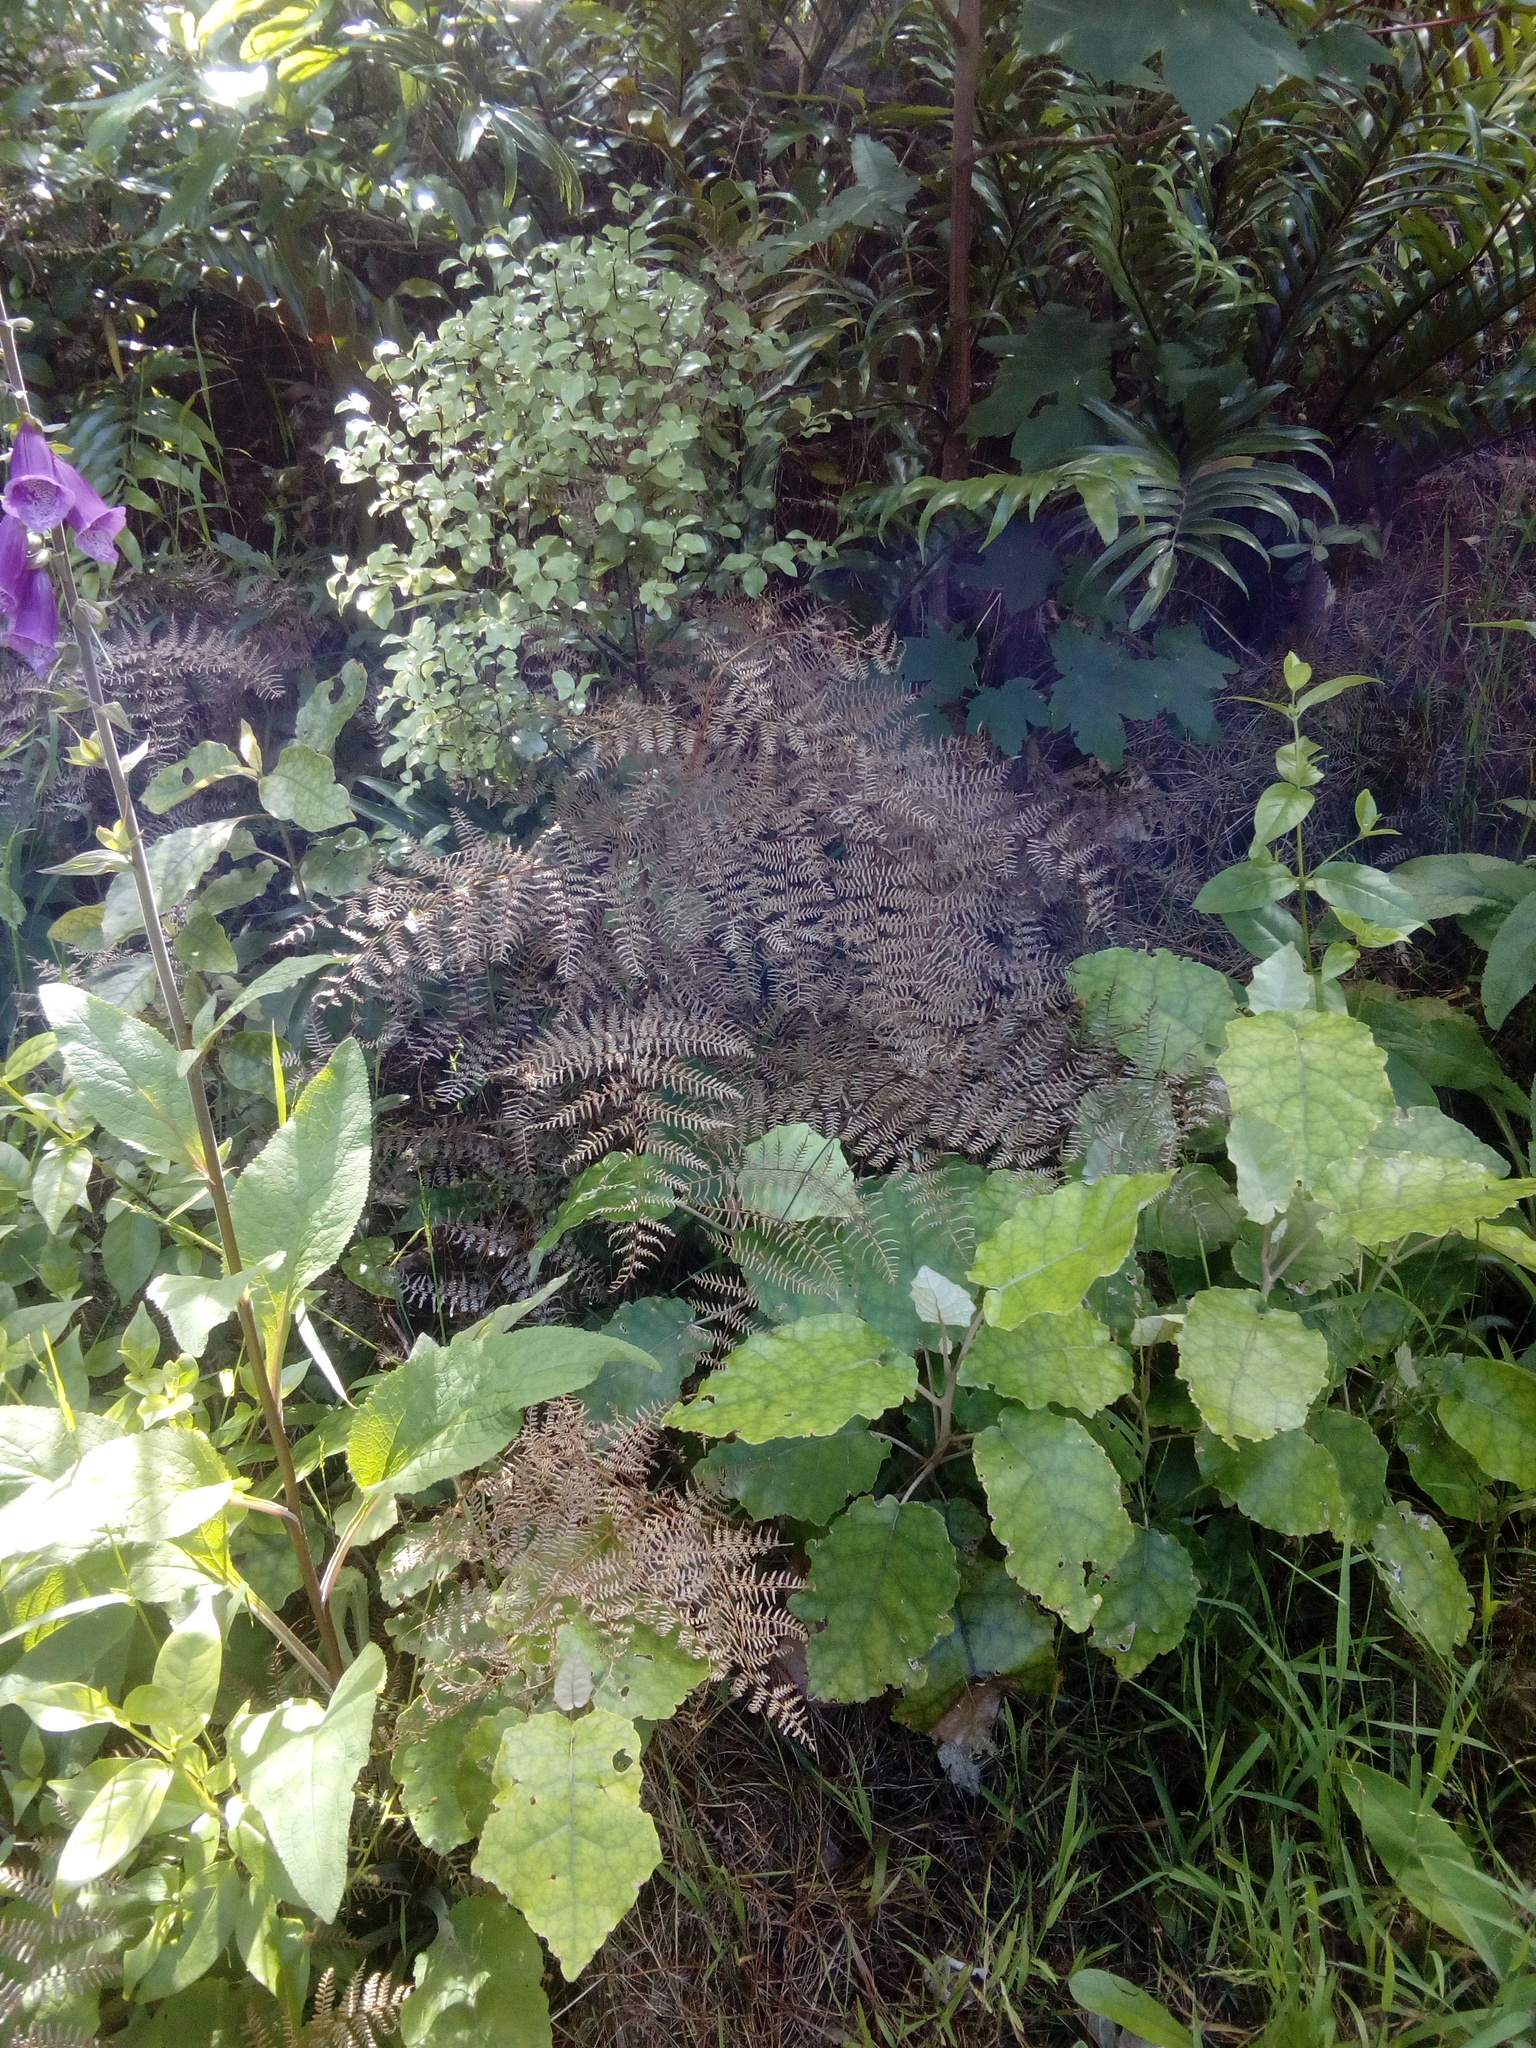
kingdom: Plantae
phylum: Tracheophyta
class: Polypodiopsida
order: Polypodiales
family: Dennstaedtiaceae
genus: Pteridium
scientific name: Pteridium esculentum
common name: Bracken fern
